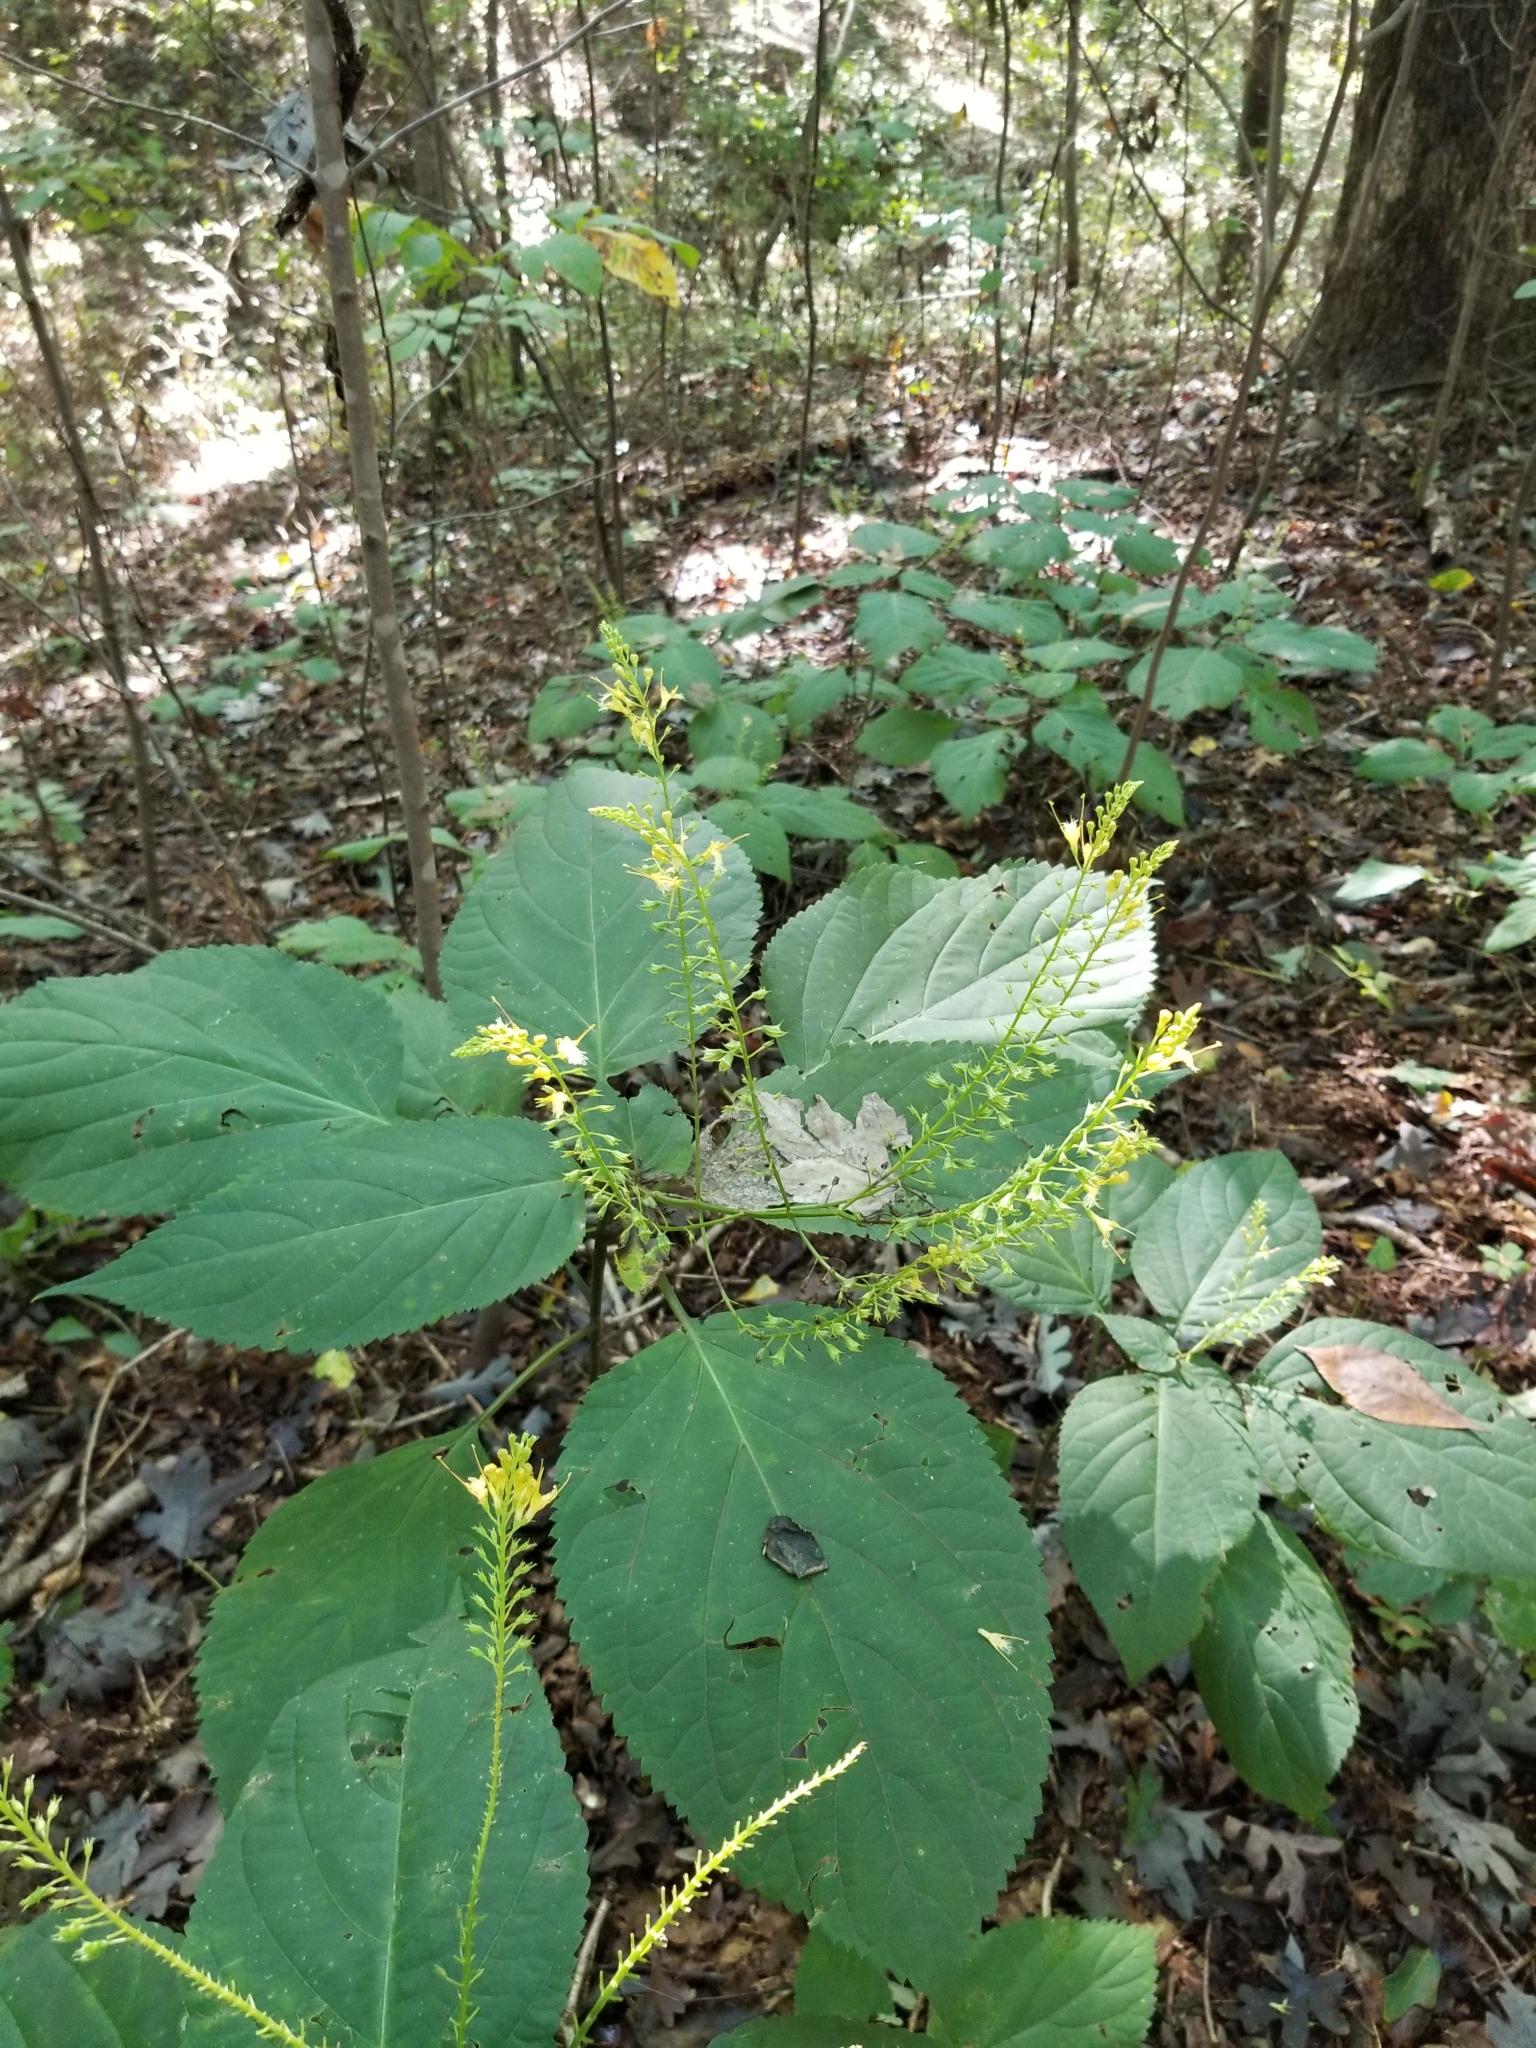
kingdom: Plantae
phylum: Tracheophyta
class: Magnoliopsida
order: Lamiales
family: Lamiaceae
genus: Collinsonia
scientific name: Collinsonia canadensis
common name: Northern horsebalm
